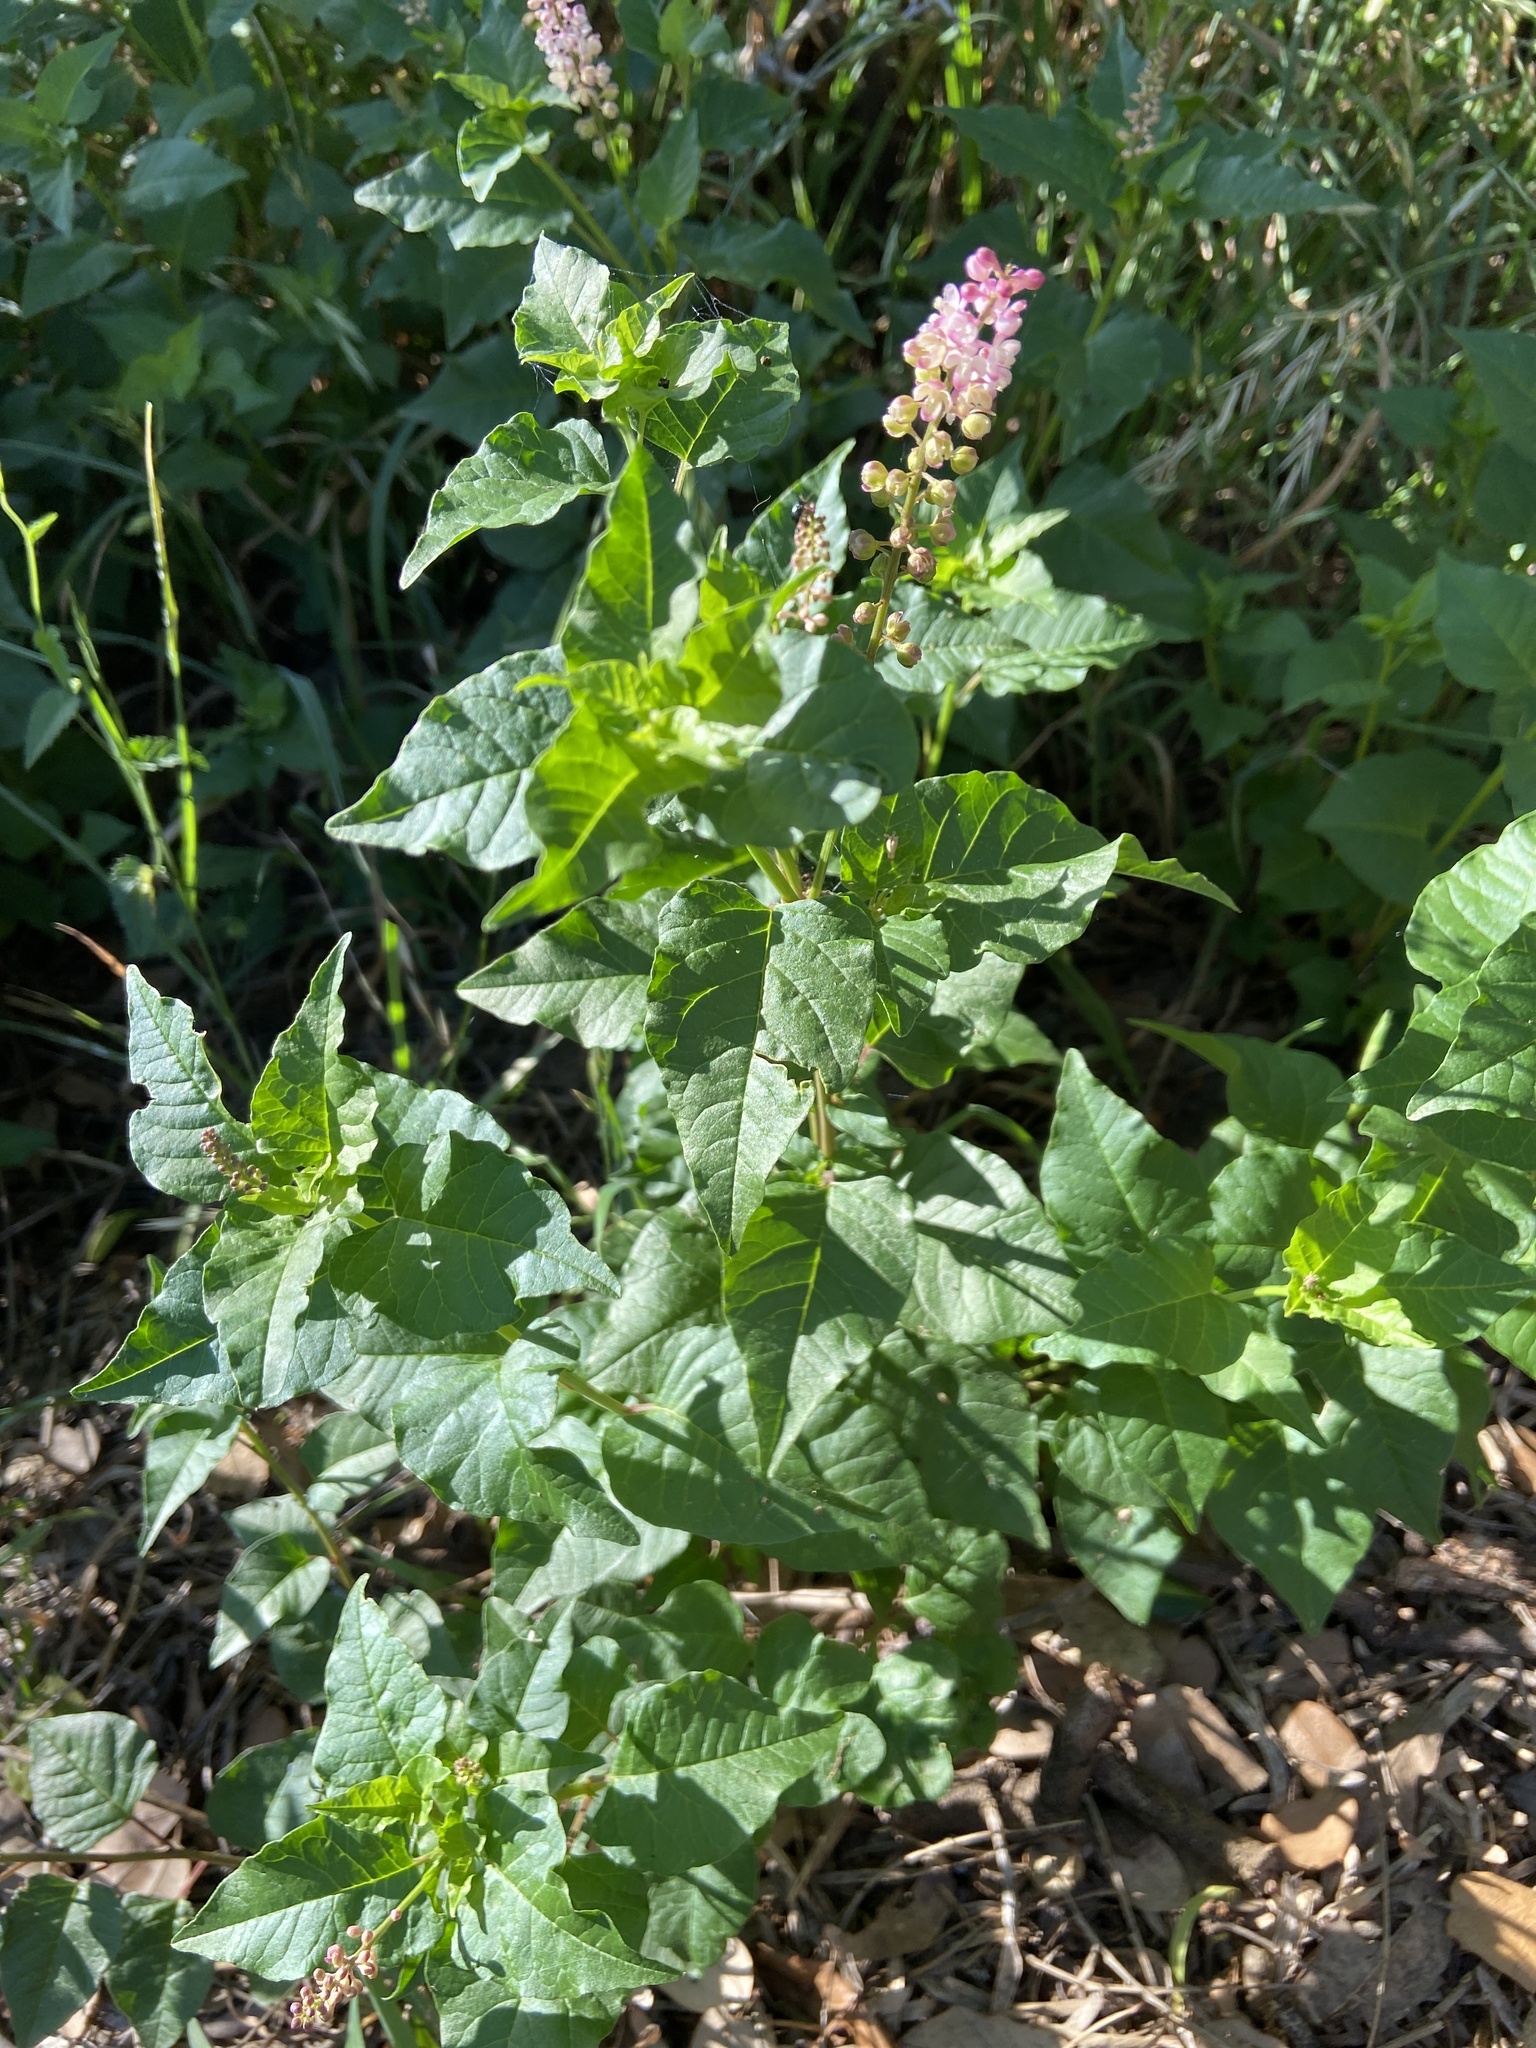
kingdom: Plantae
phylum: Tracheophyta
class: Magnoliopsida
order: Caryophyllales
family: Phytolaccaceae
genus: Rivina
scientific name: Rivina humilis
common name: Rougeplant
